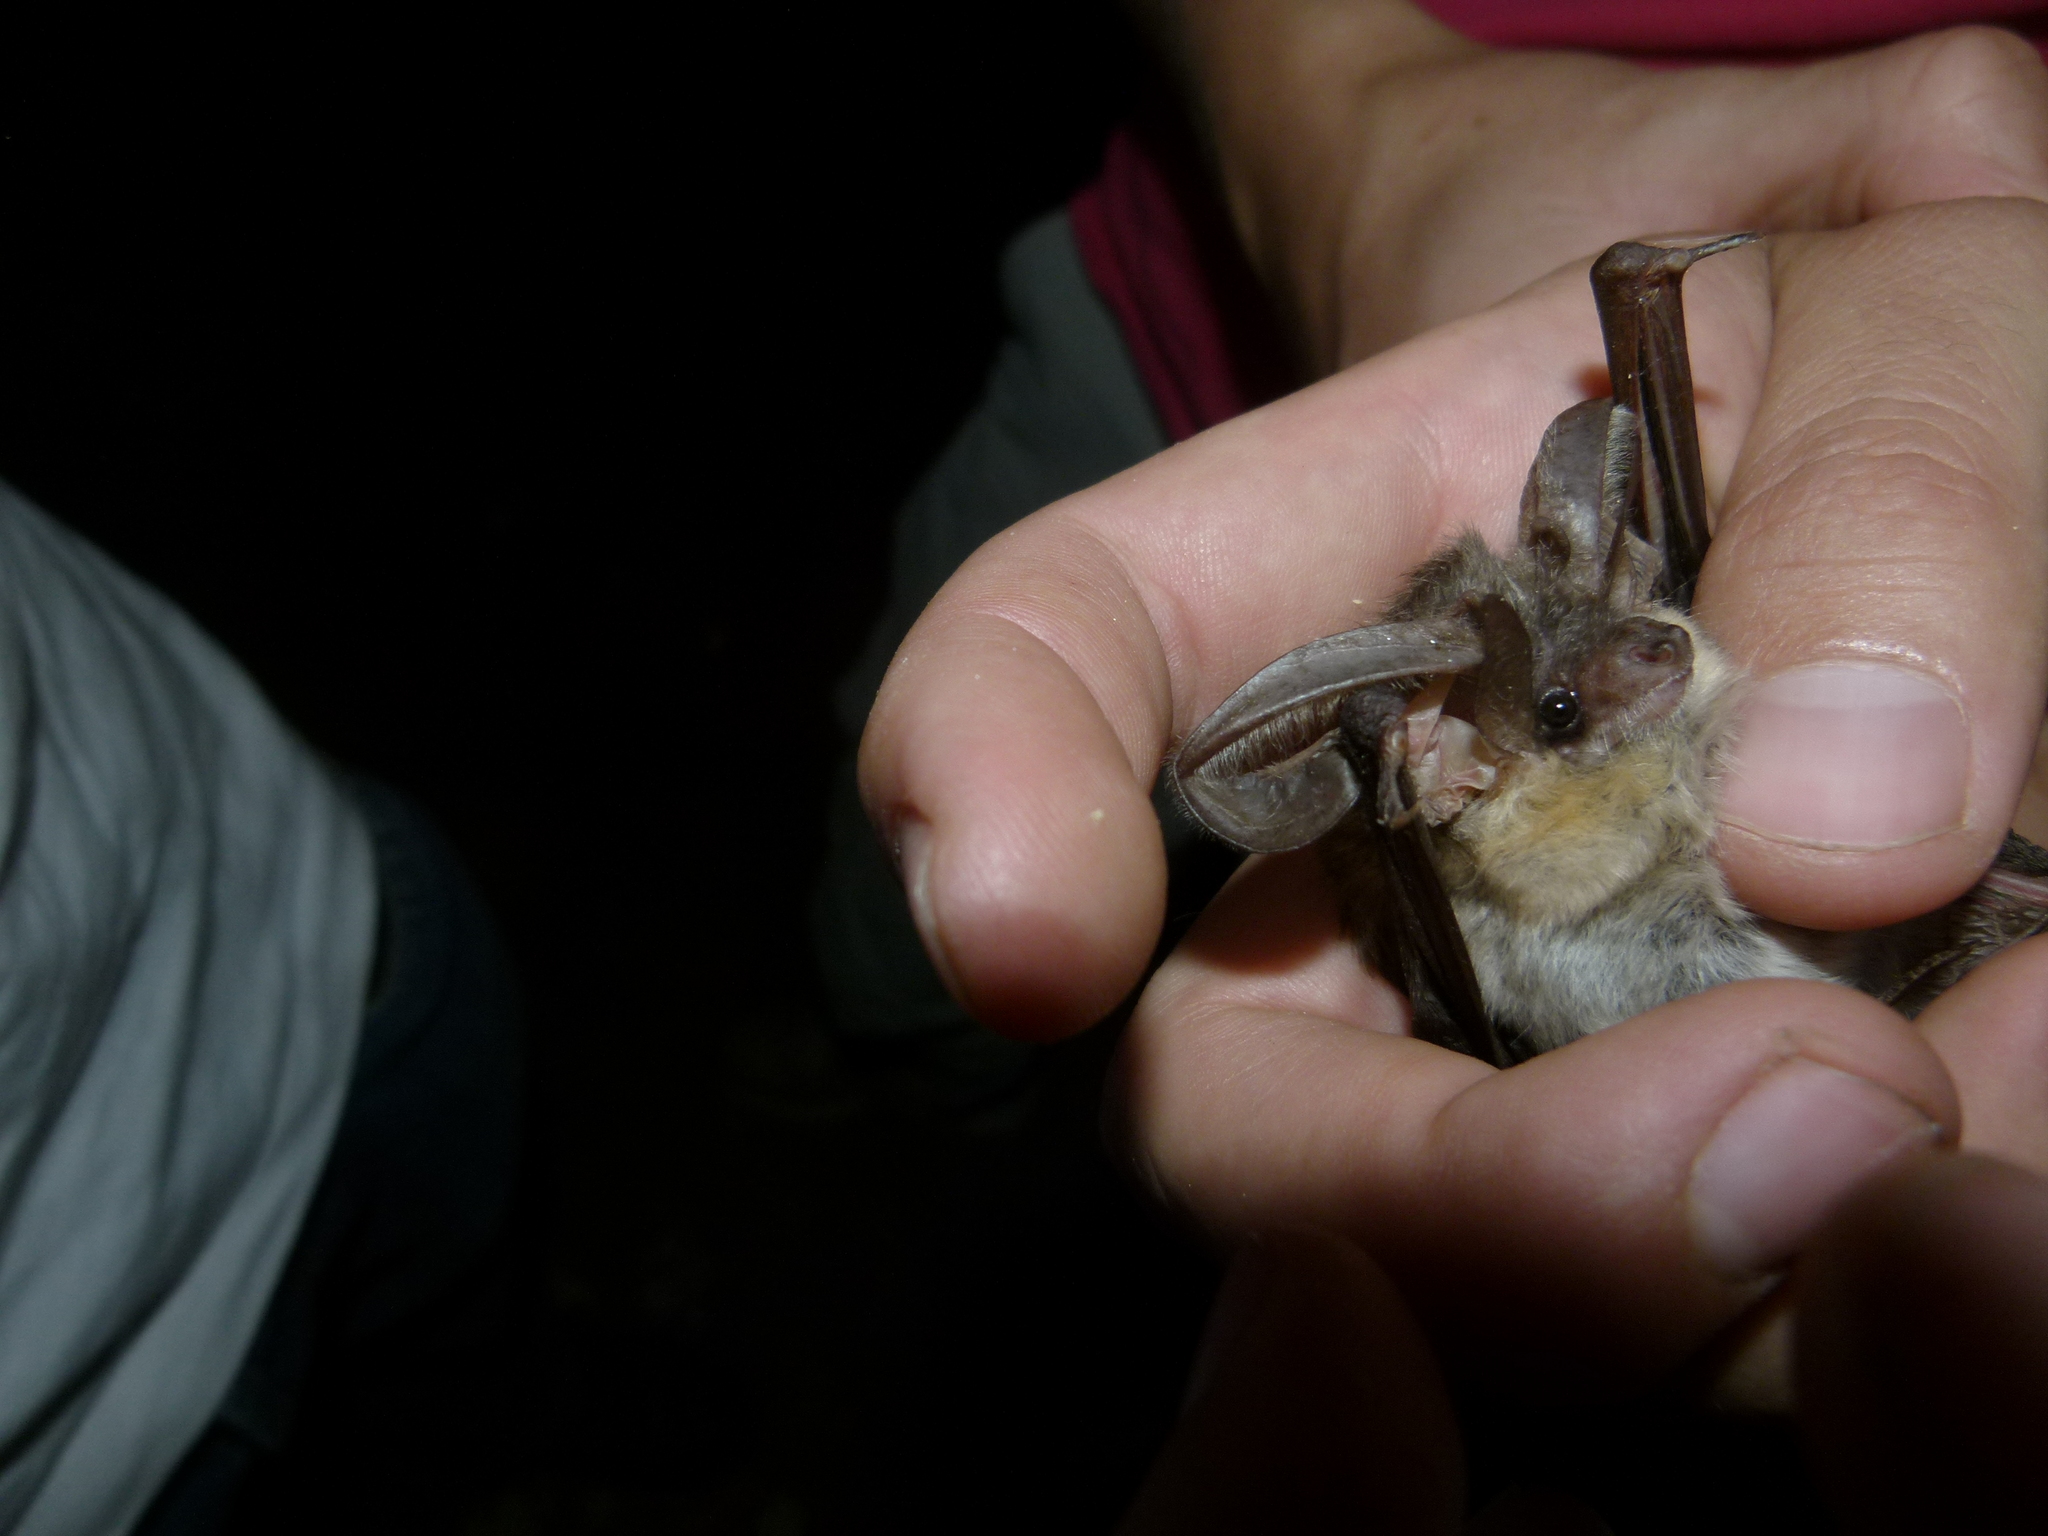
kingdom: Animalia
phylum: Chordata
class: Mammalia
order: Chiroptera
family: Vespertilionidae
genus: Plecotus
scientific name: Plecotus austriacus
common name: Grey long-eared bat
